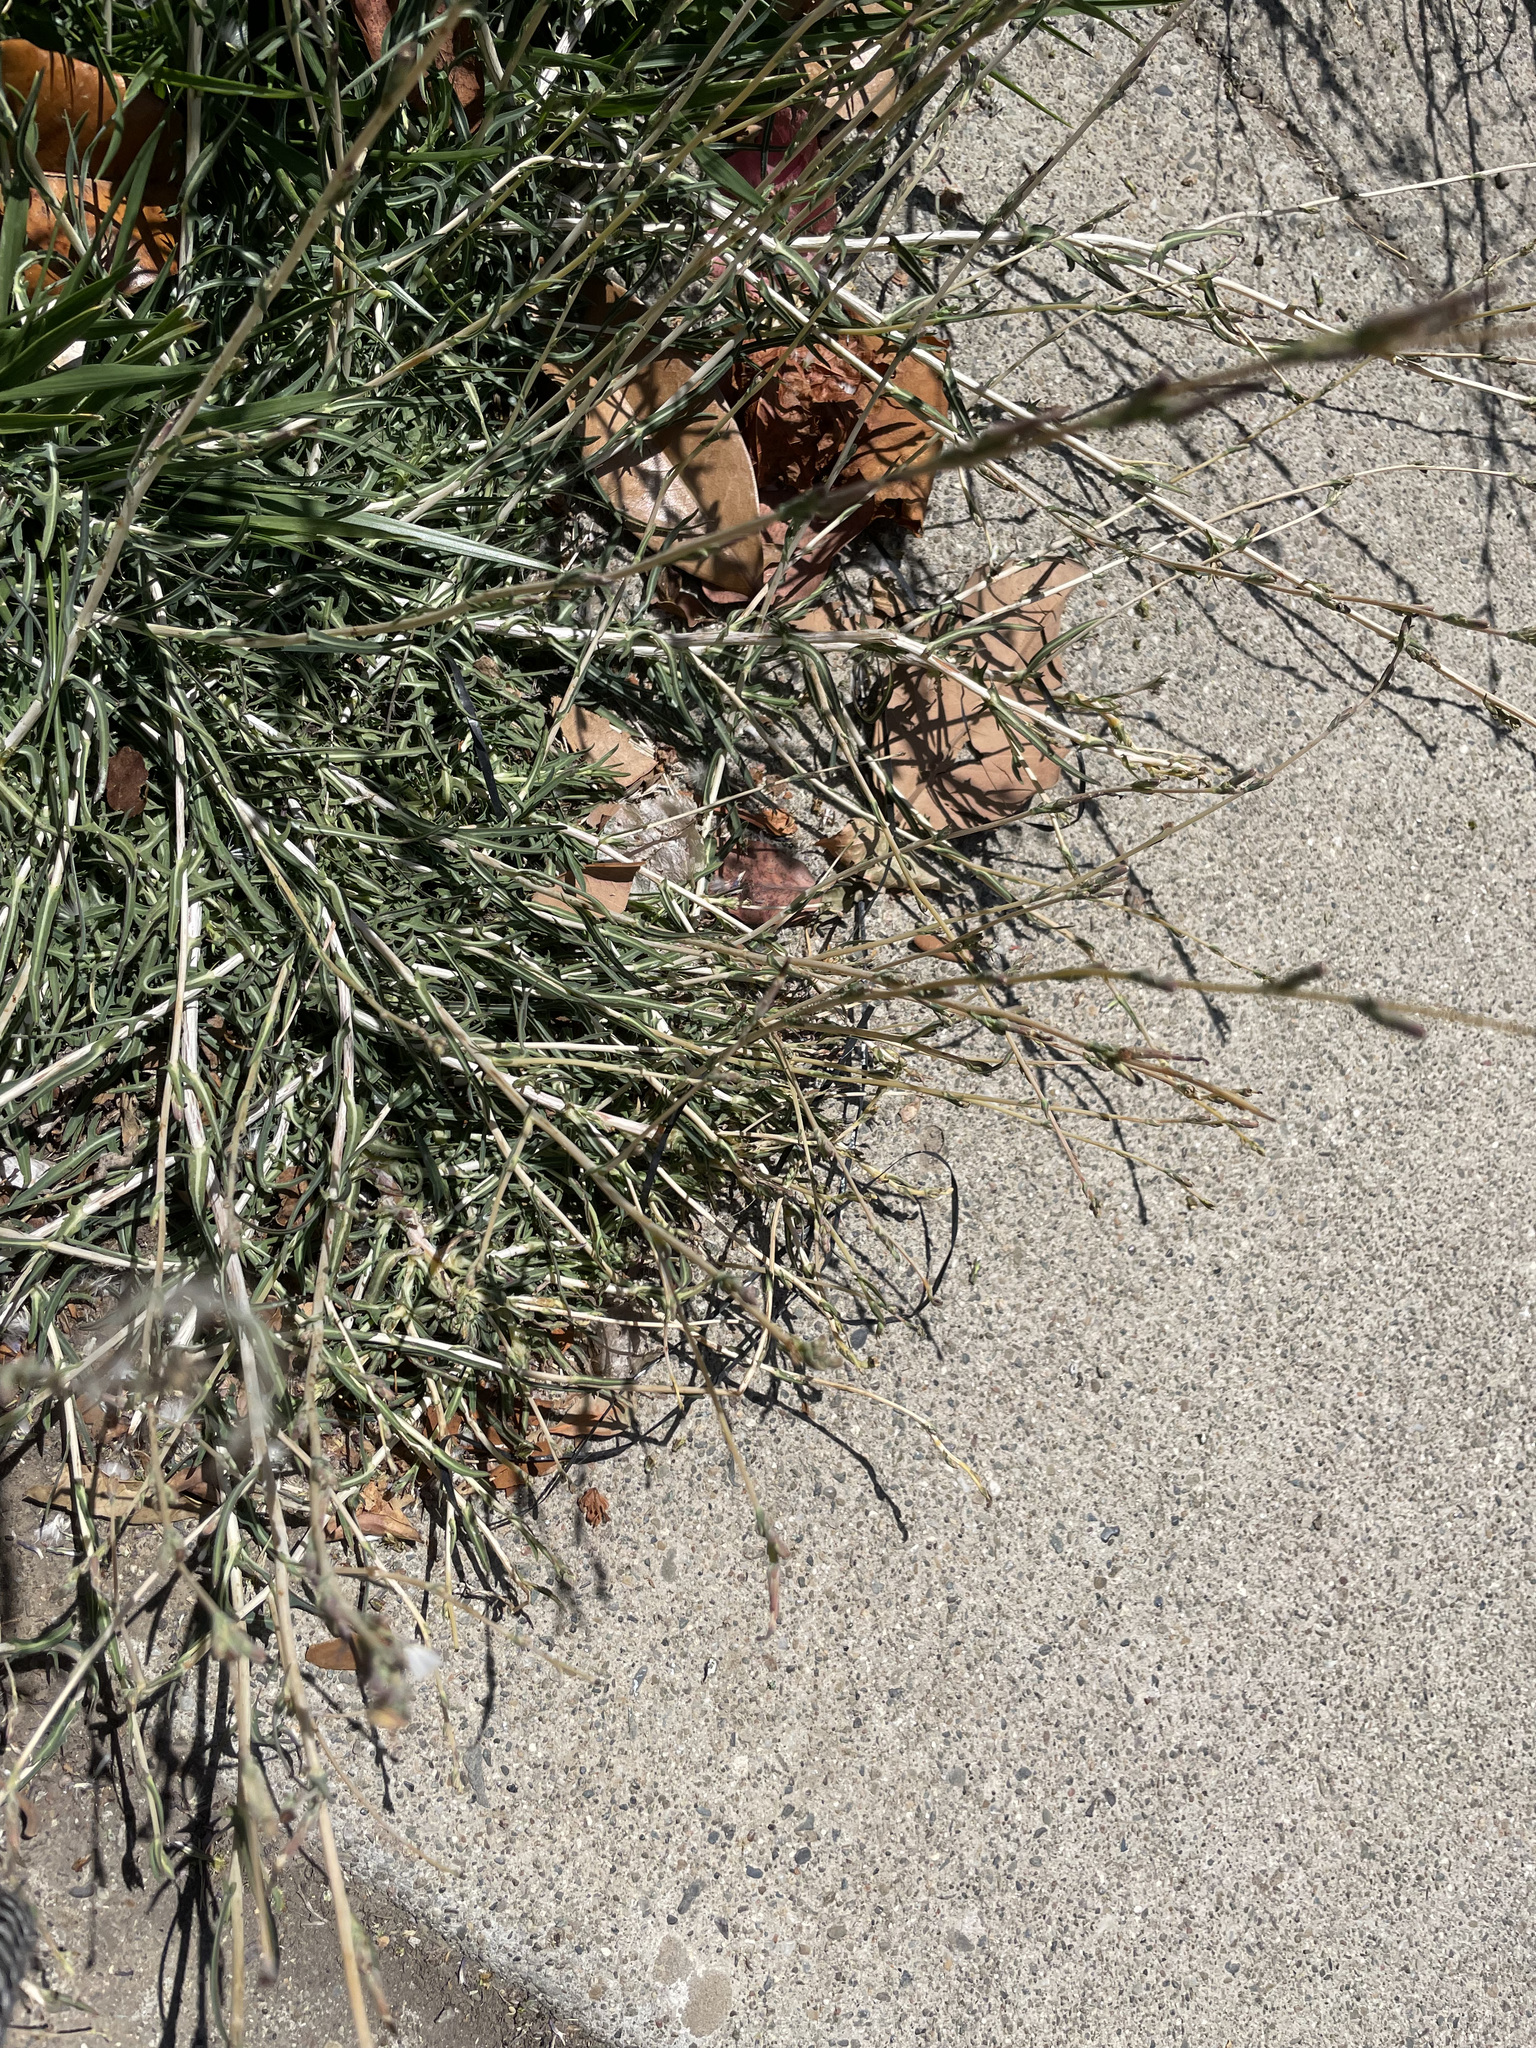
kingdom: Plantae
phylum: Tracheophyta
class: Magnoliopsida
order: Asterales
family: Asteraceae
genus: Lactuca
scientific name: Lactuca saligna
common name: Wild lettuce
